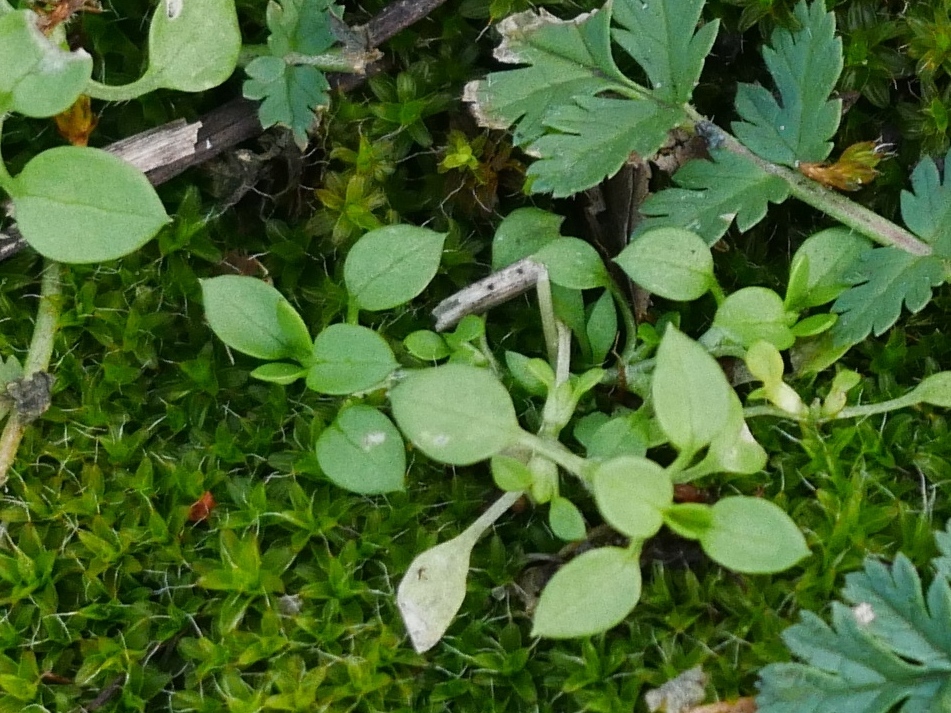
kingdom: Plantae
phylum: Tracheophyta
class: Magnoliopsida
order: Caryophyllales
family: Caryophyllaceae
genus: Stellaria
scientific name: Stellaria media
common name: Common chickweed
